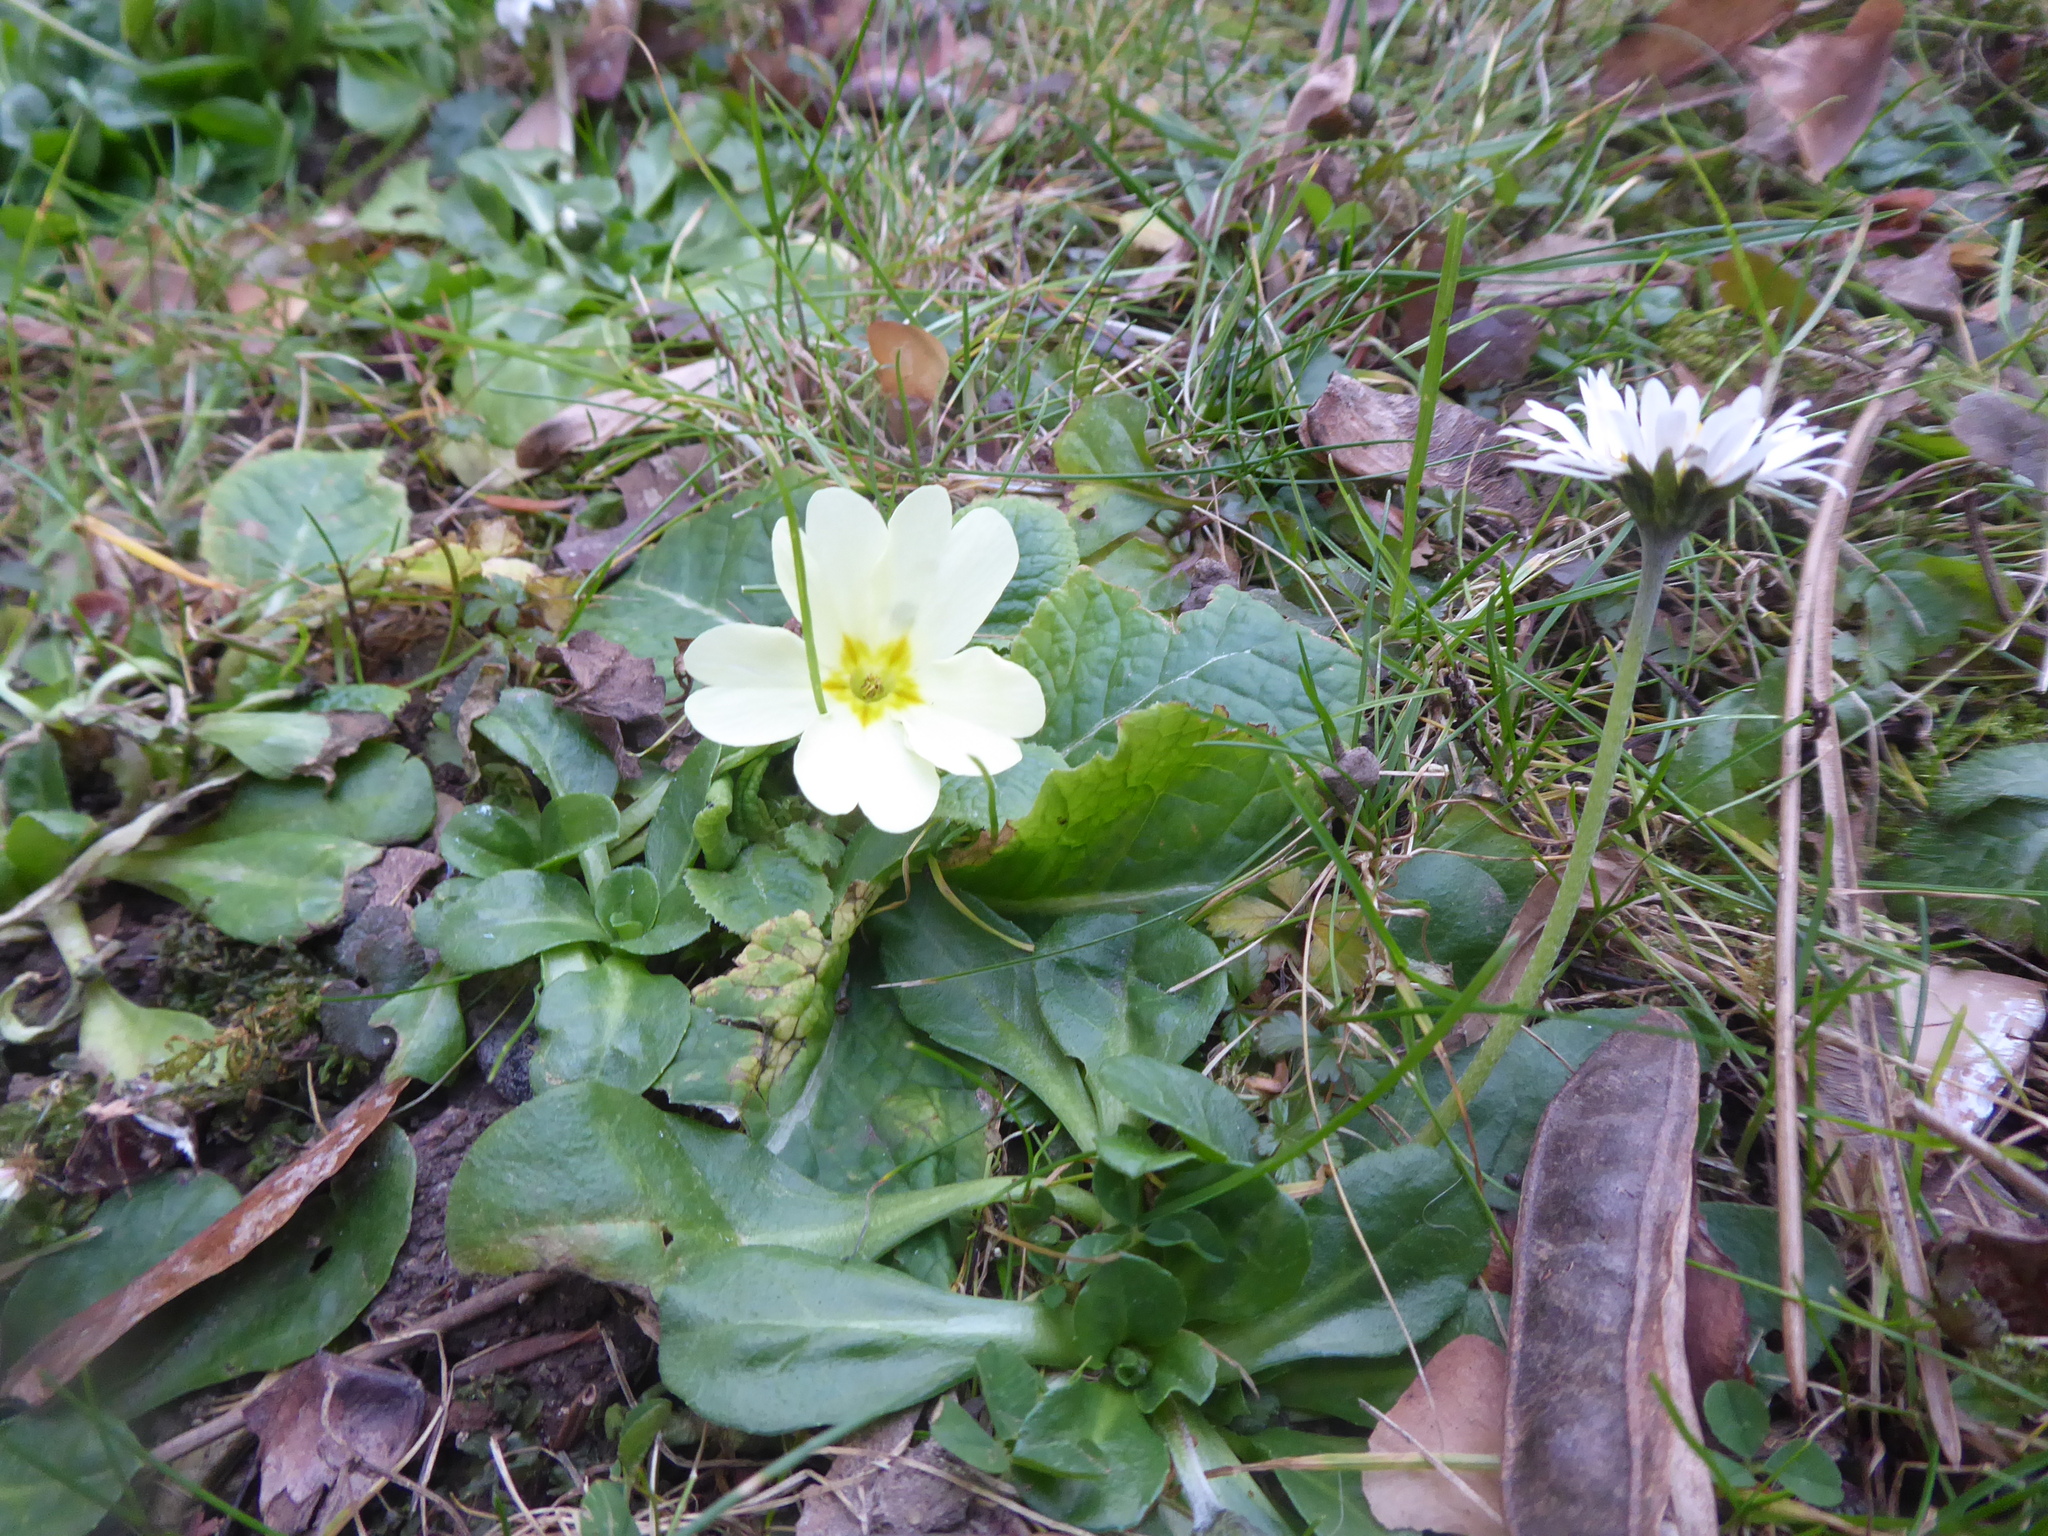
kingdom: Plantae
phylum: Tracheophyta
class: Magnoliopsida
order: Ericales
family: Primulaceae
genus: Primula
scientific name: Primula vulgaris
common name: Primrose
